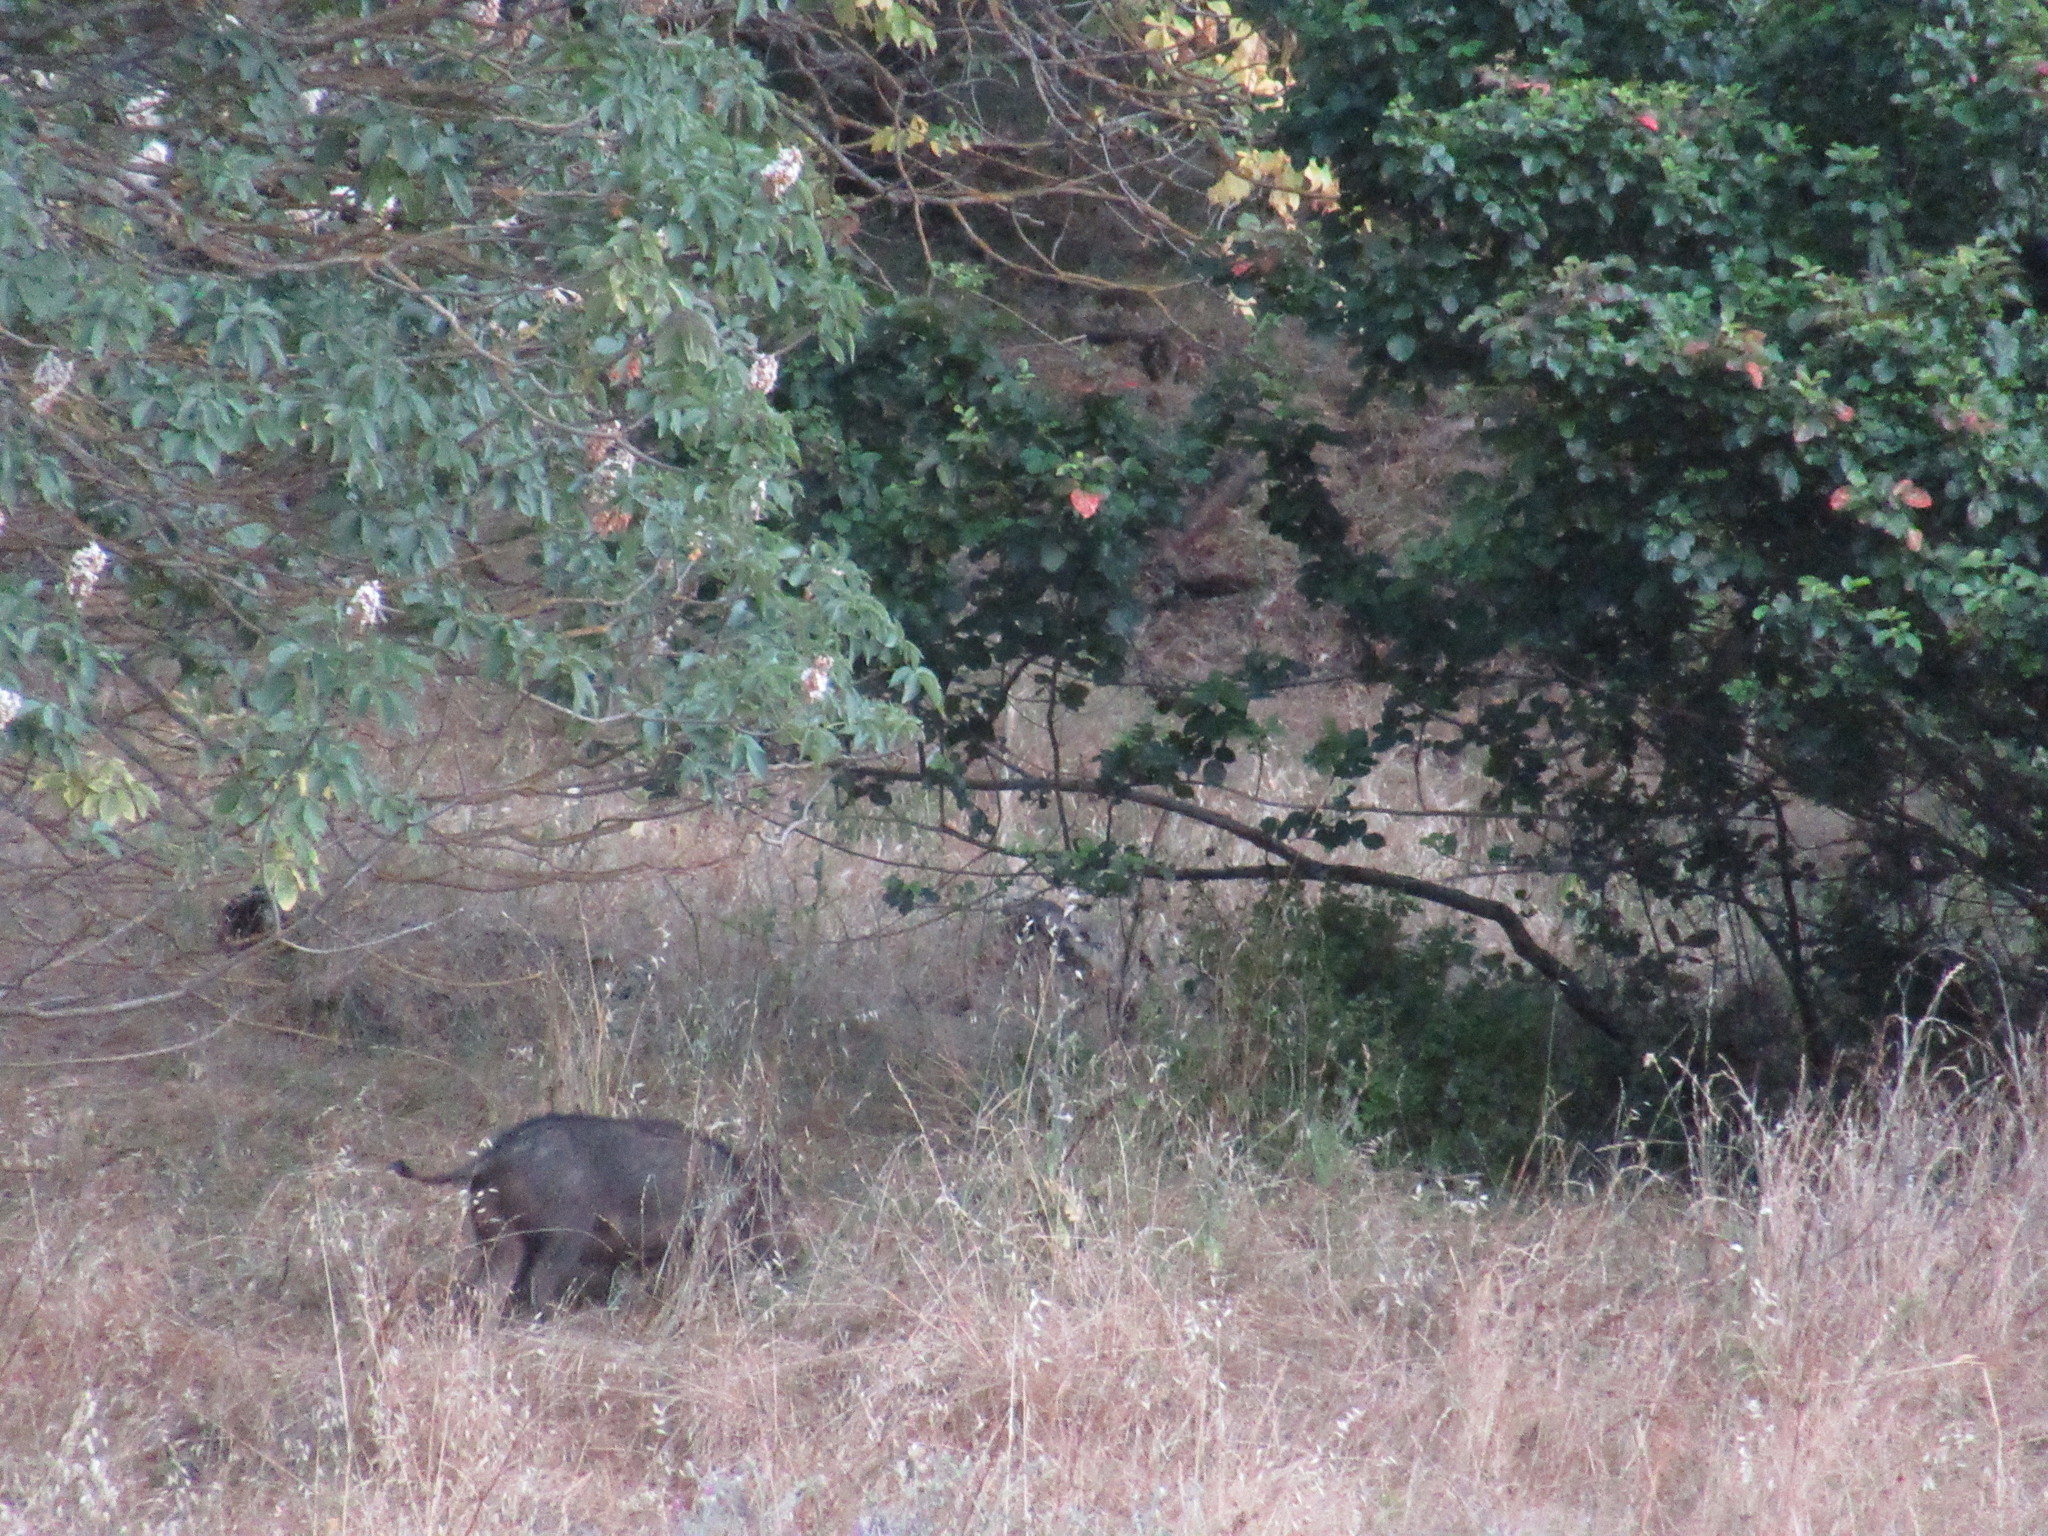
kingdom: Animalia
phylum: Chordata
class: Mammalia
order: Artiodactyla
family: Suidae
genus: Sus
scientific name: Sus scrofa
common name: Wild boar
